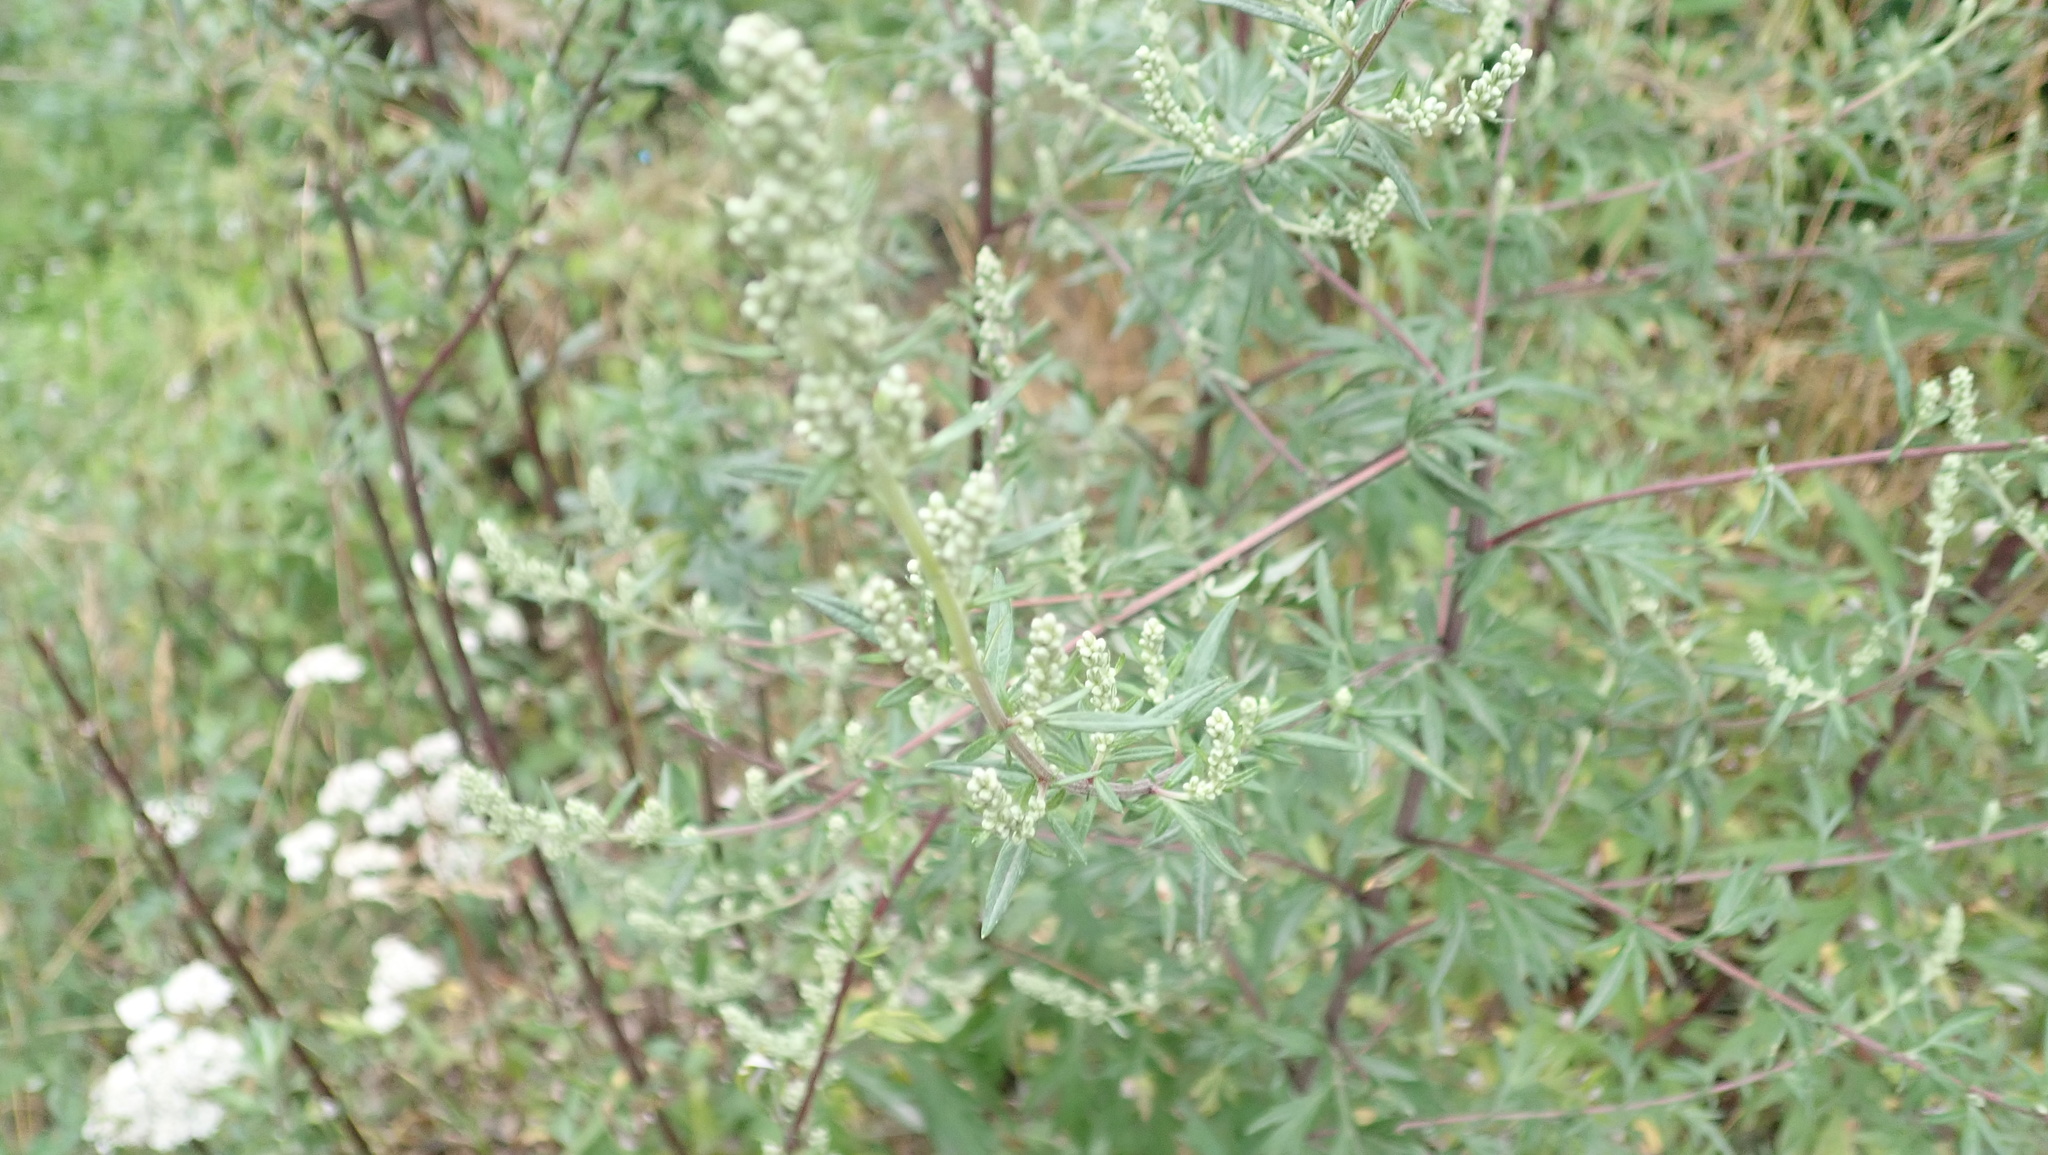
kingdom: Plantae
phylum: Tracheophyta
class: Magnoliopsida
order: Asterales
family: Asteraceae
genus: Artemisia
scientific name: Artemisia vulgaris
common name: Mugwort
